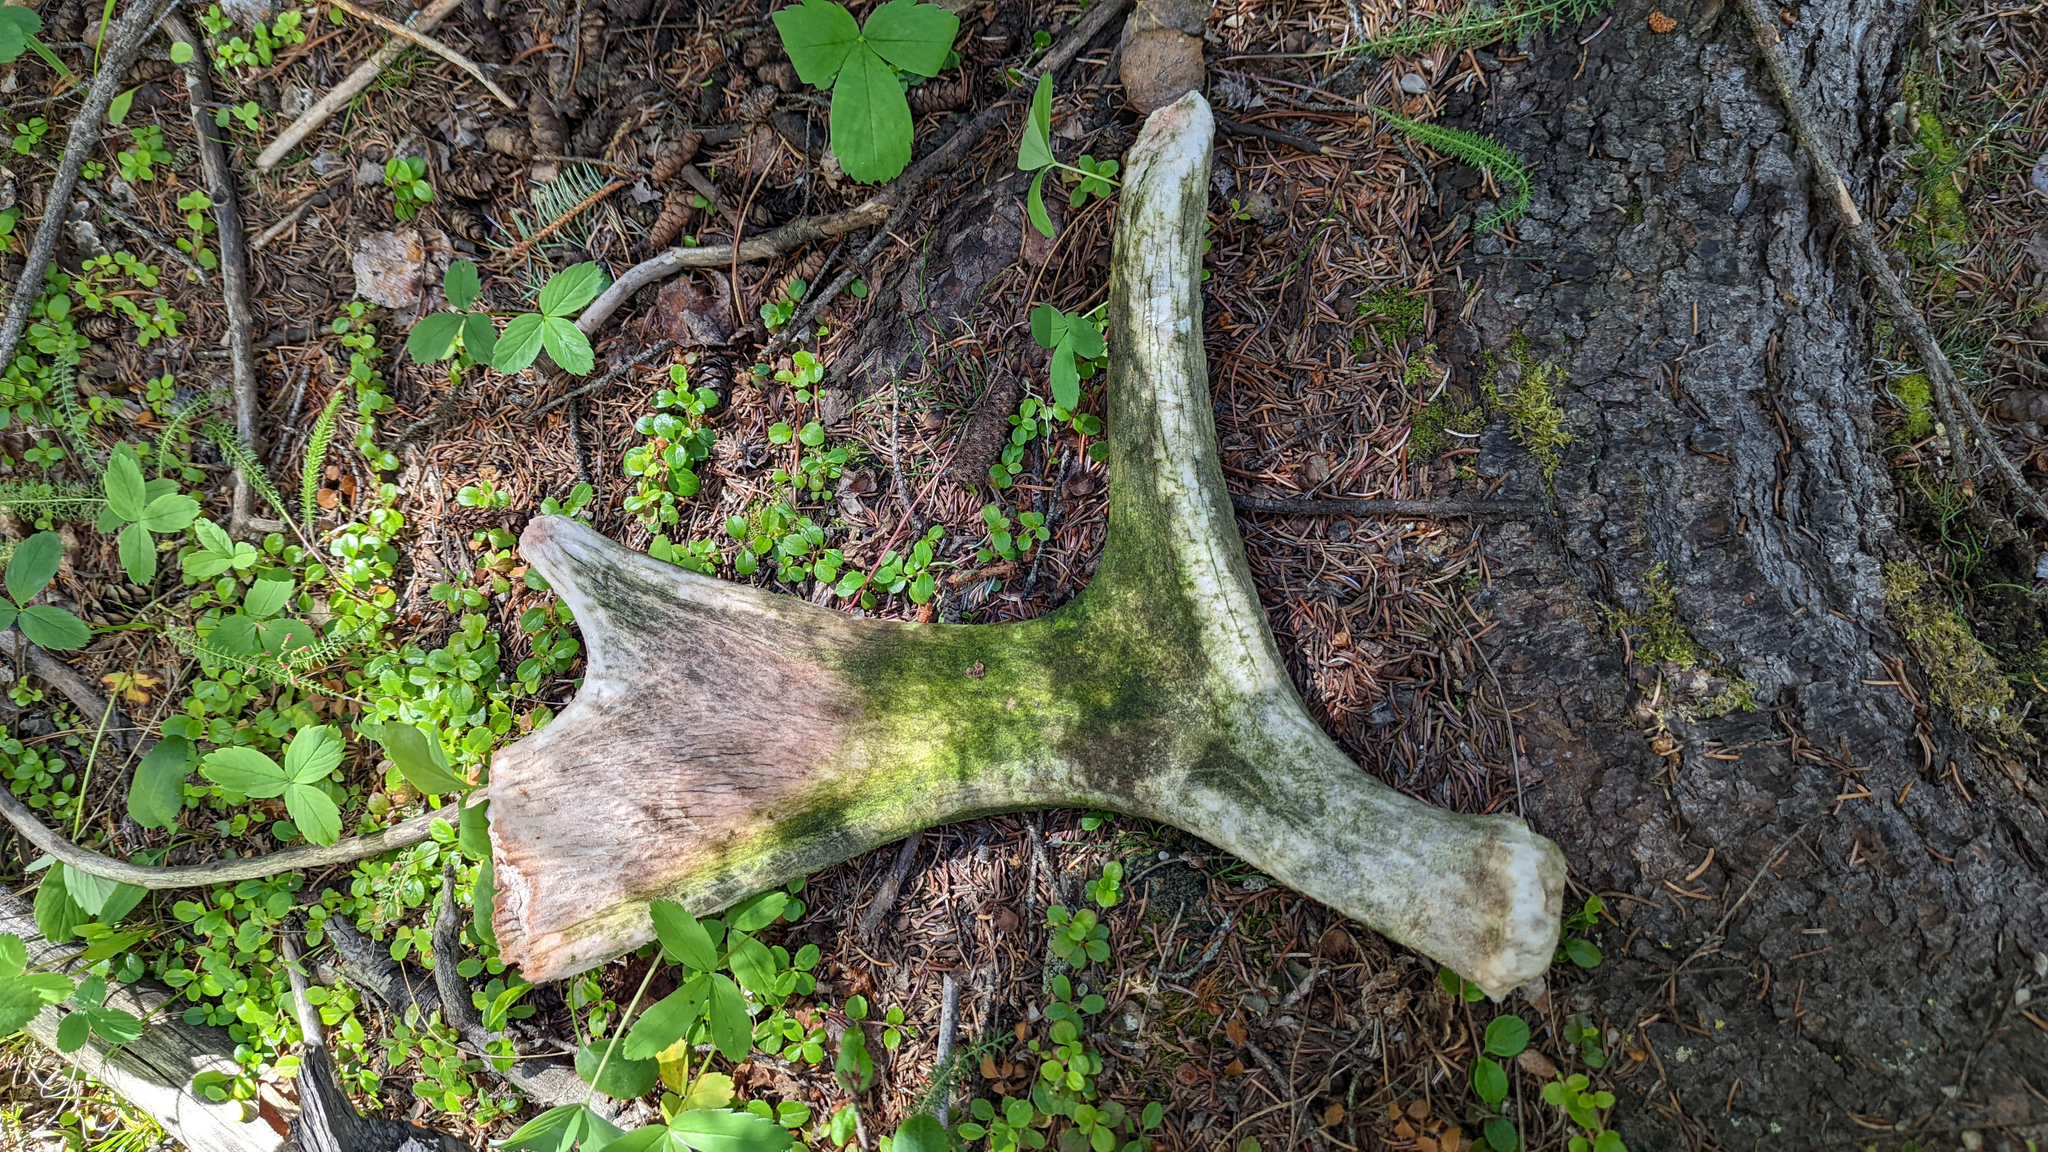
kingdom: Animalia
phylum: Chordata
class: Mammalia
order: Artiodactyla
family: Cervidae
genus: Alces
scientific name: Alces alces
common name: Moose
